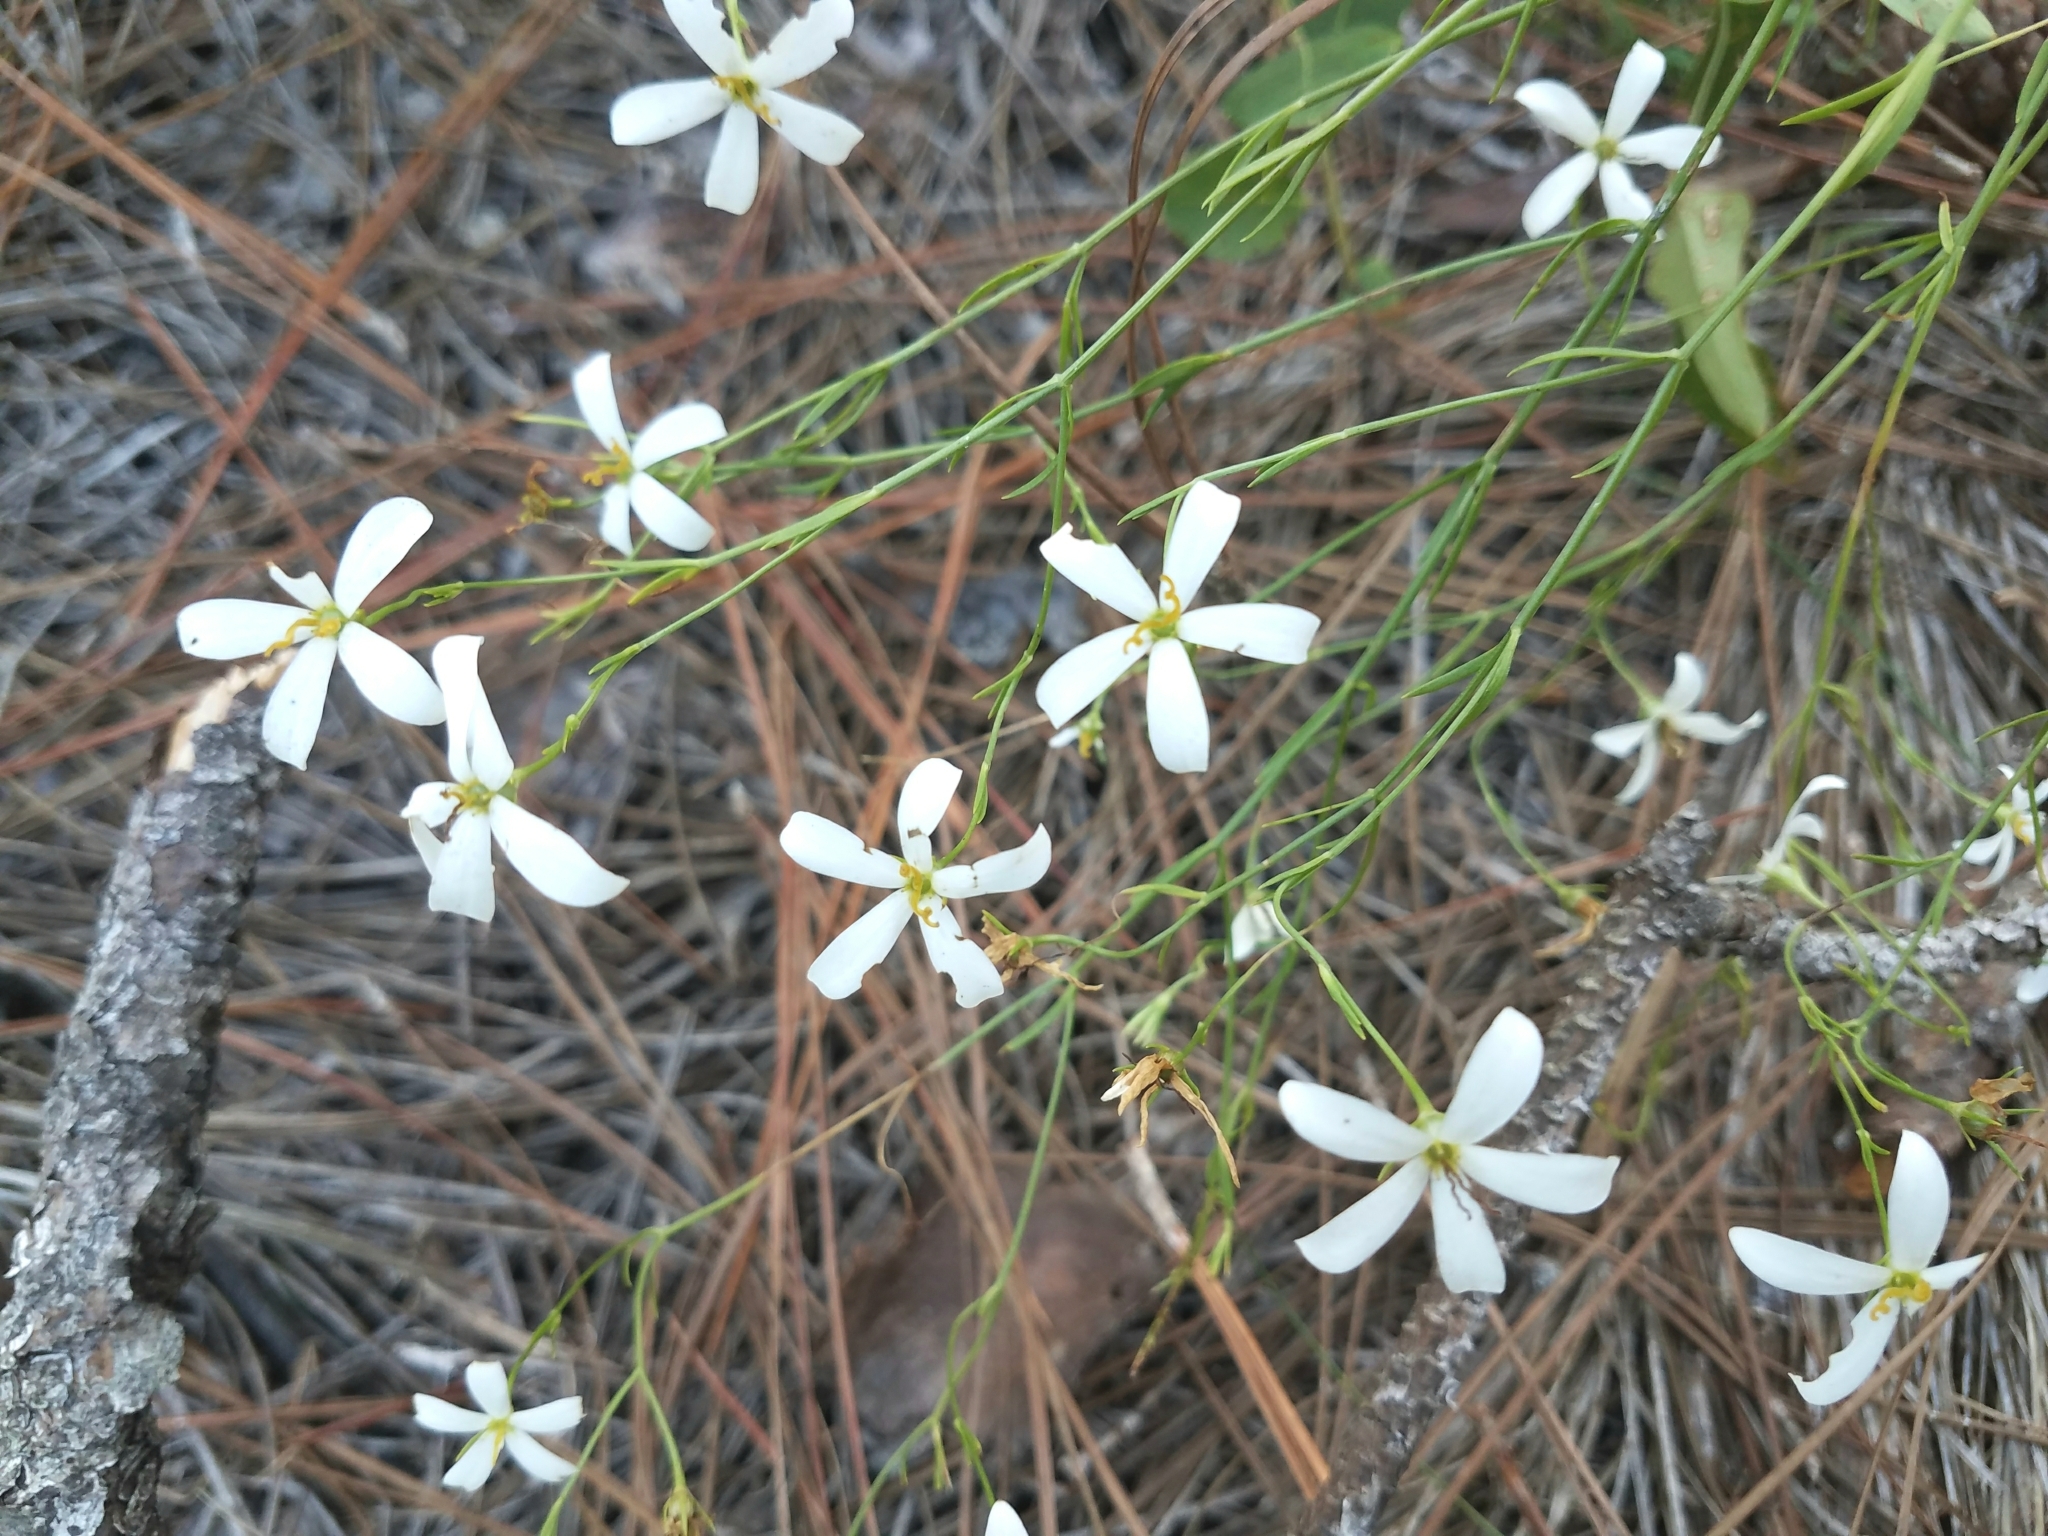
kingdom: Plantae
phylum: Tracheophyta
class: Magnoliopsida
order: Gentianales
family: Gentianaceae
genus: Sabatia
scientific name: Sabatia brevifolia
